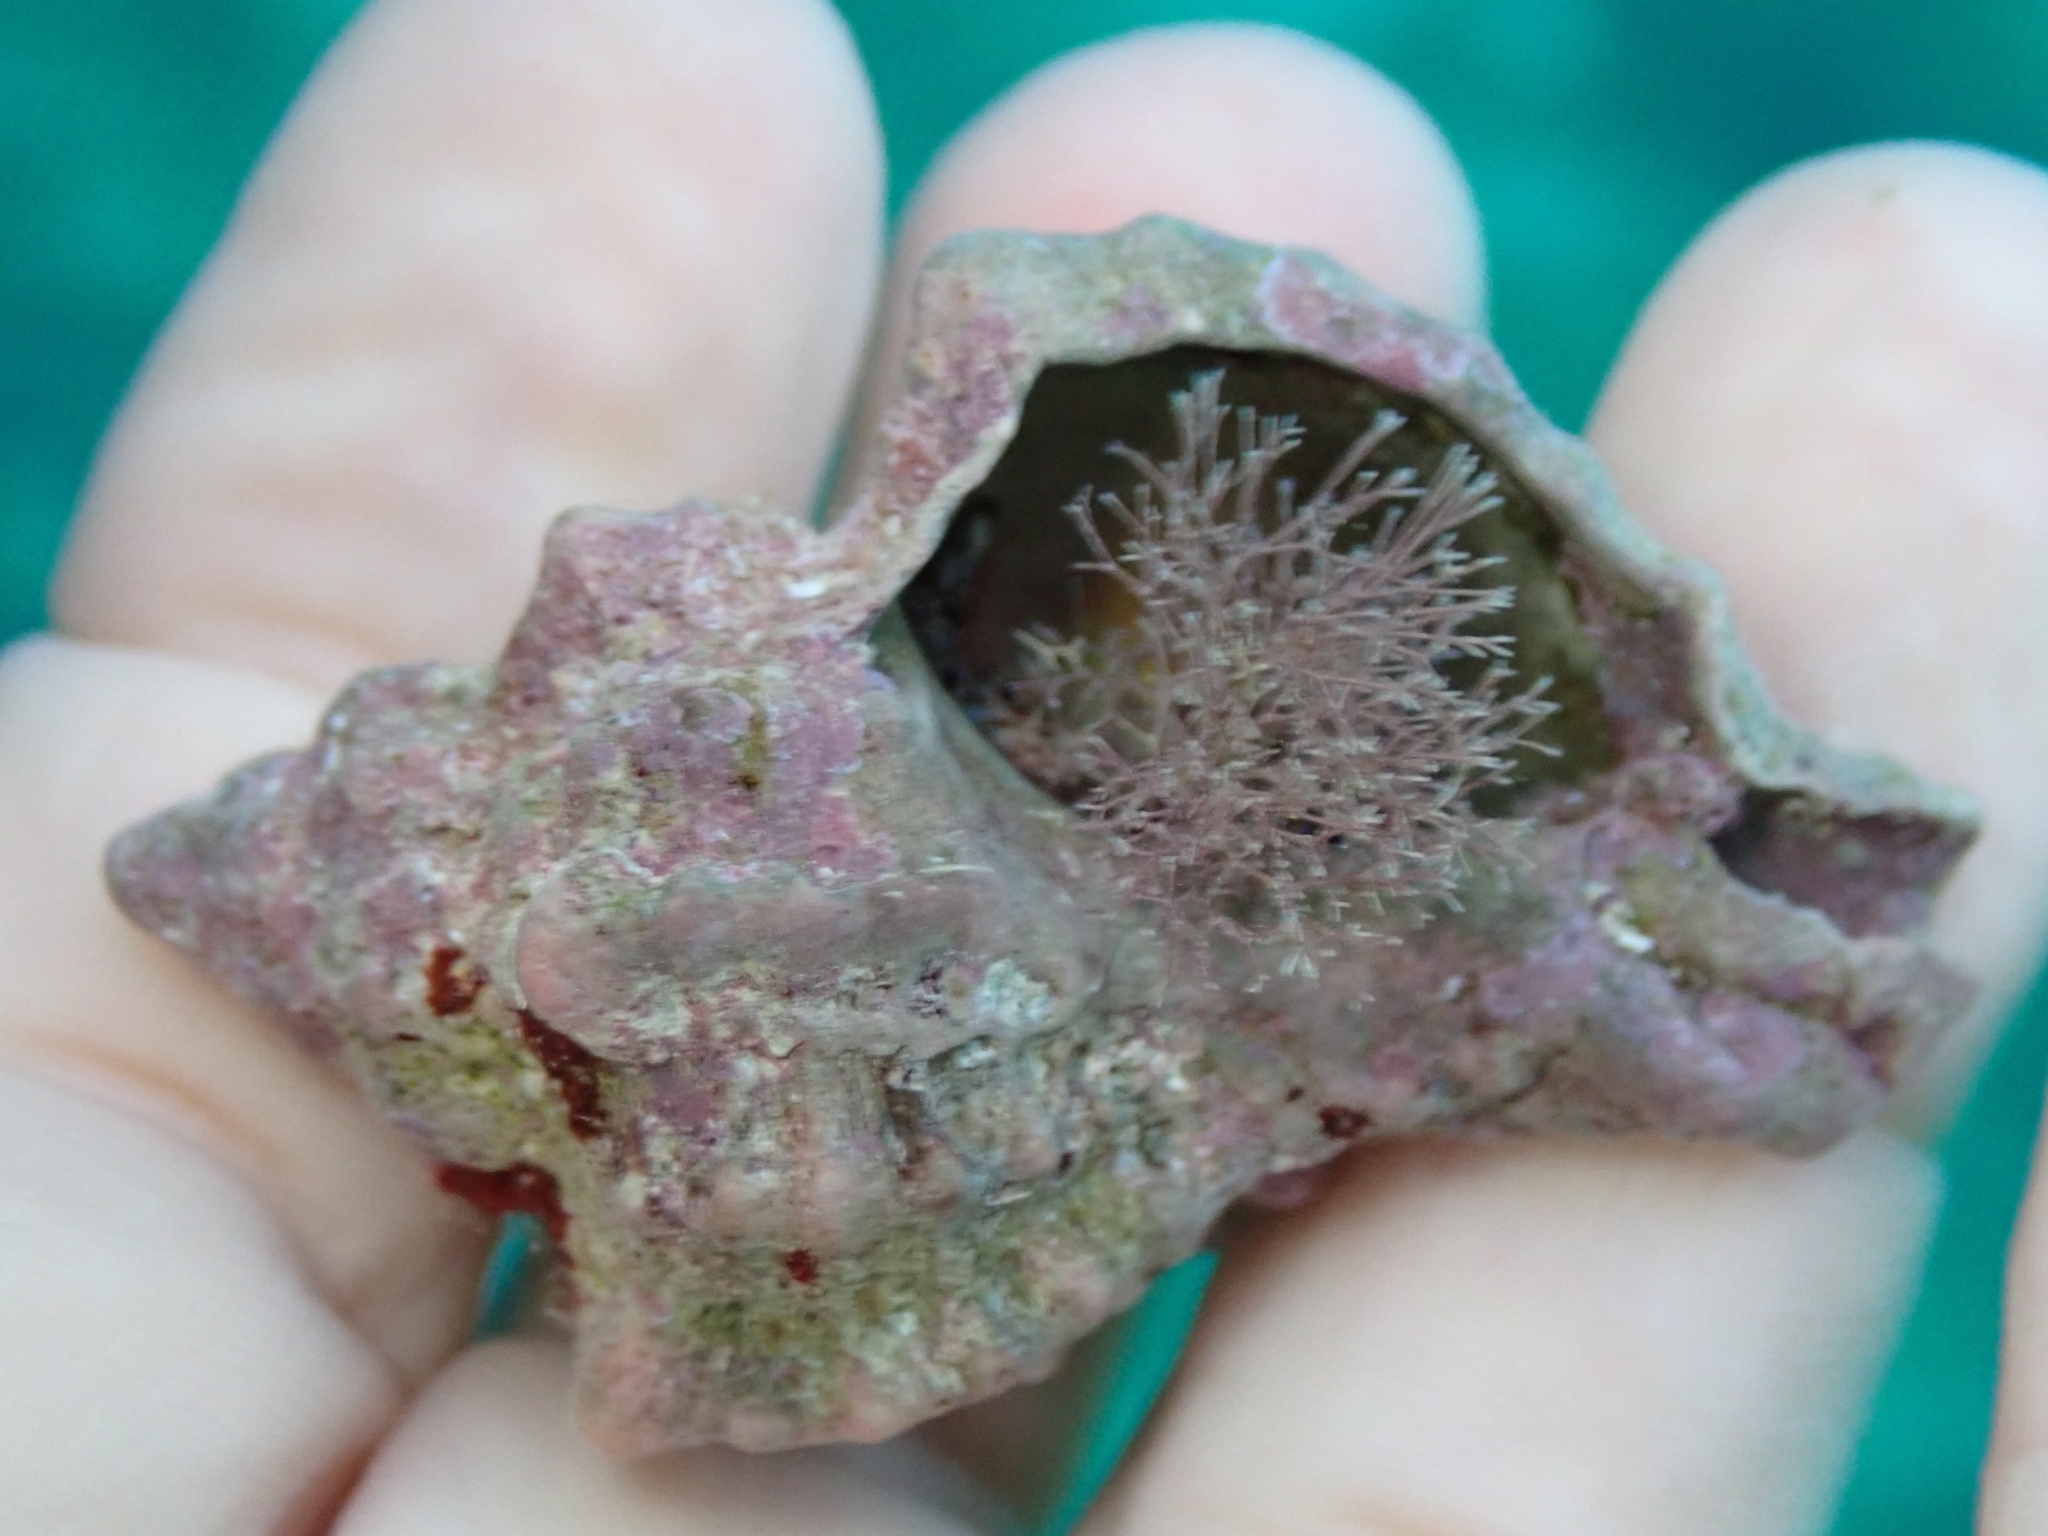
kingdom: Animalia
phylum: Mollusca
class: Gastropoda
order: Neogastropoda
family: Muricidae
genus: Hexaplex
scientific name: Hexaplex trunculus
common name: Banded dye-murex
